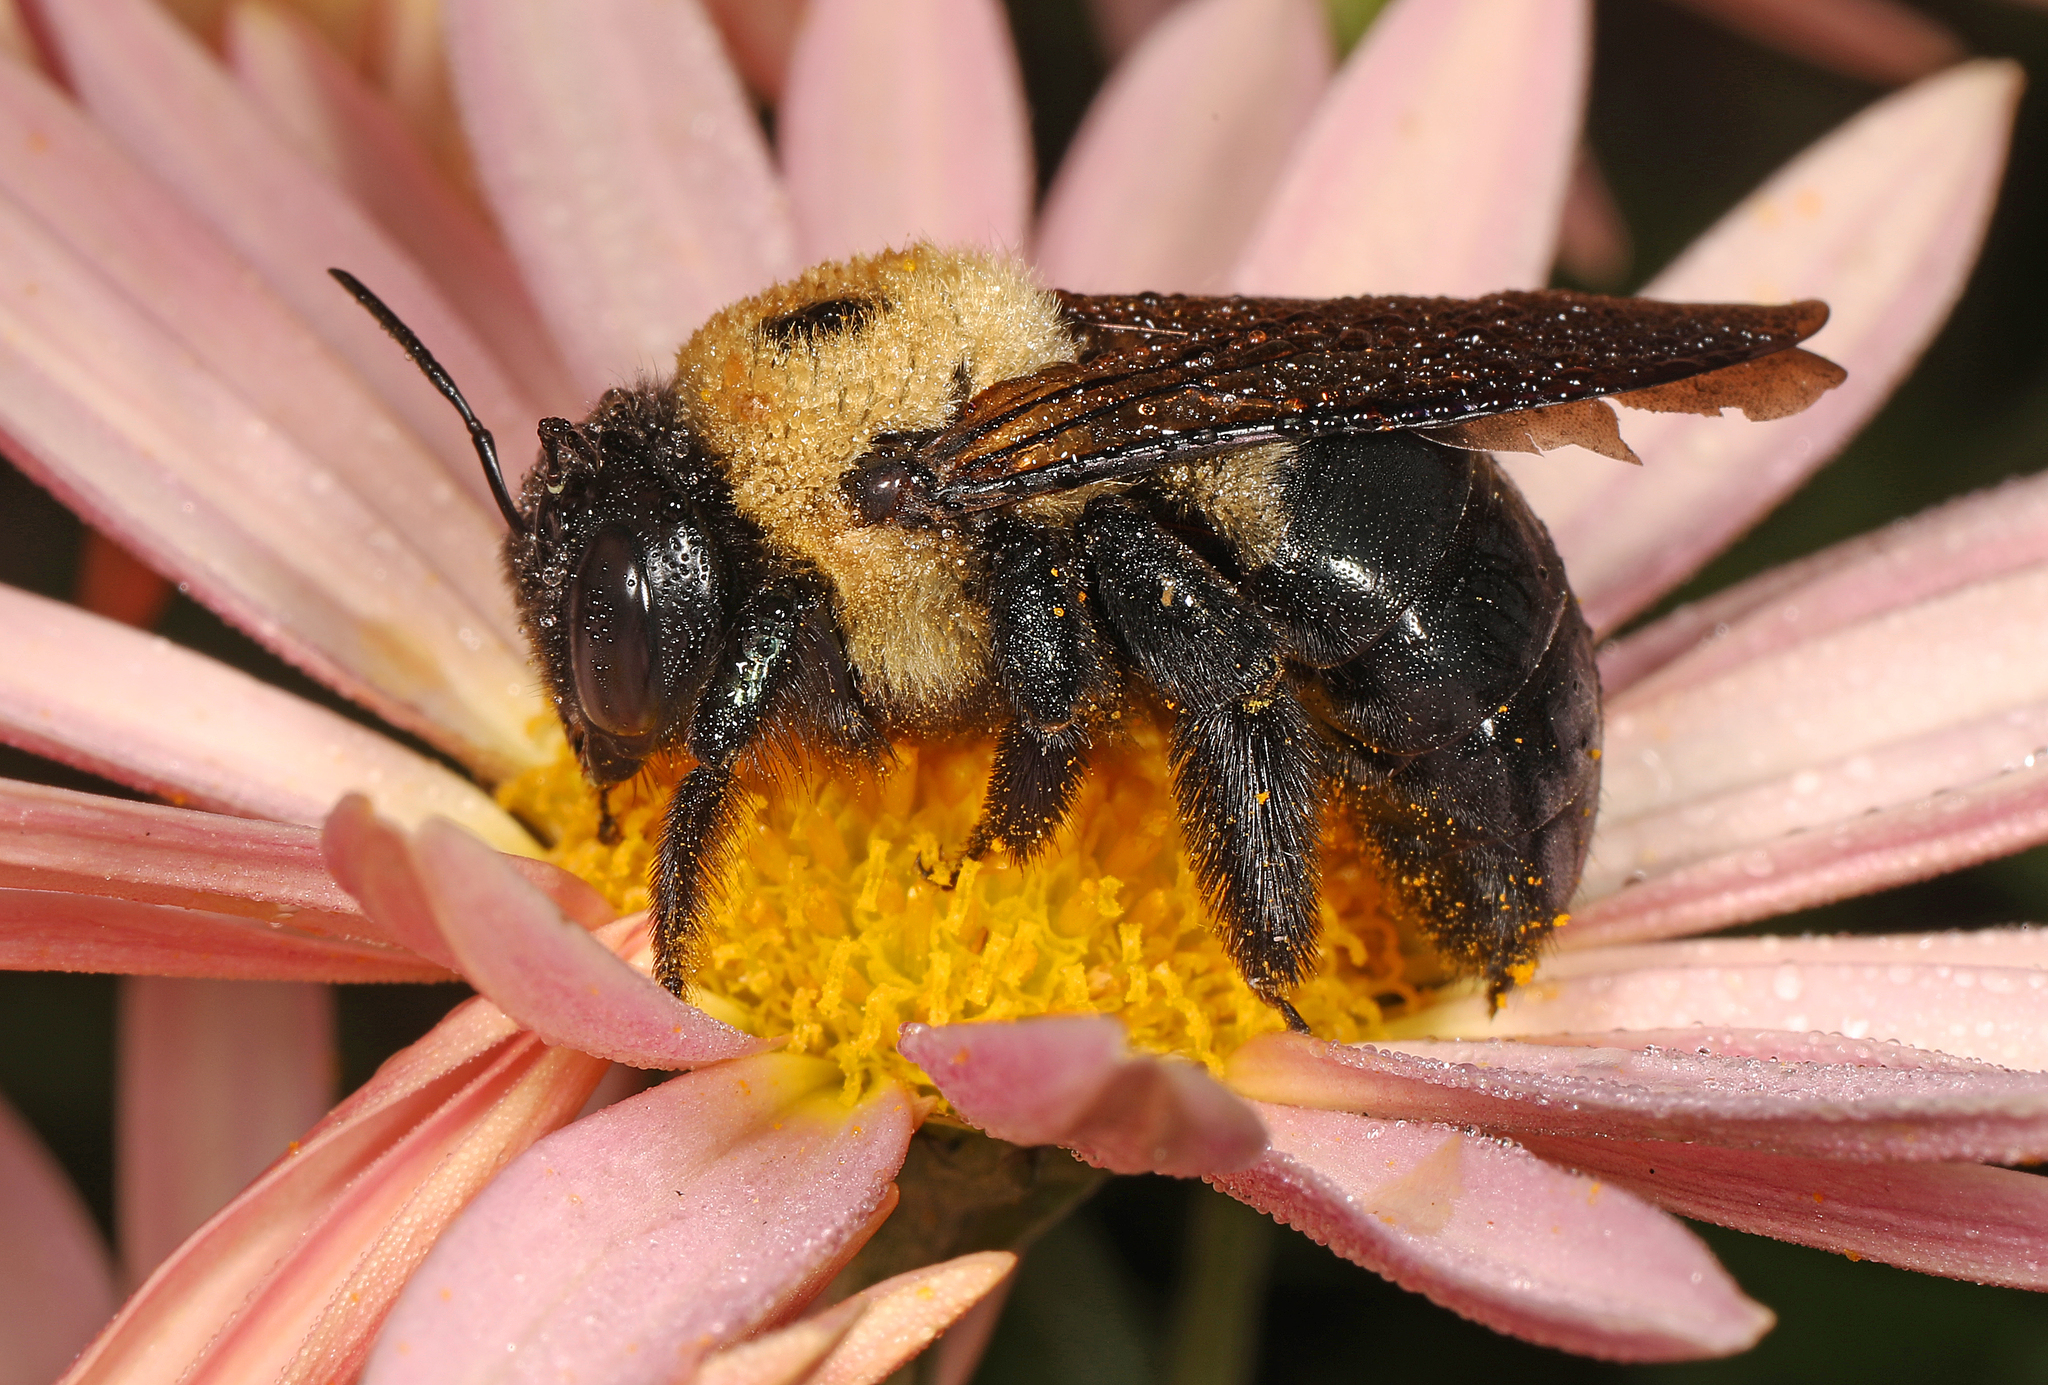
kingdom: Animalia
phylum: Arthropoda
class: Insecta
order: Hymenoptera
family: Apidae
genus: Xylocopa
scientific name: Xylocopa virginica
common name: Carpenter bee
